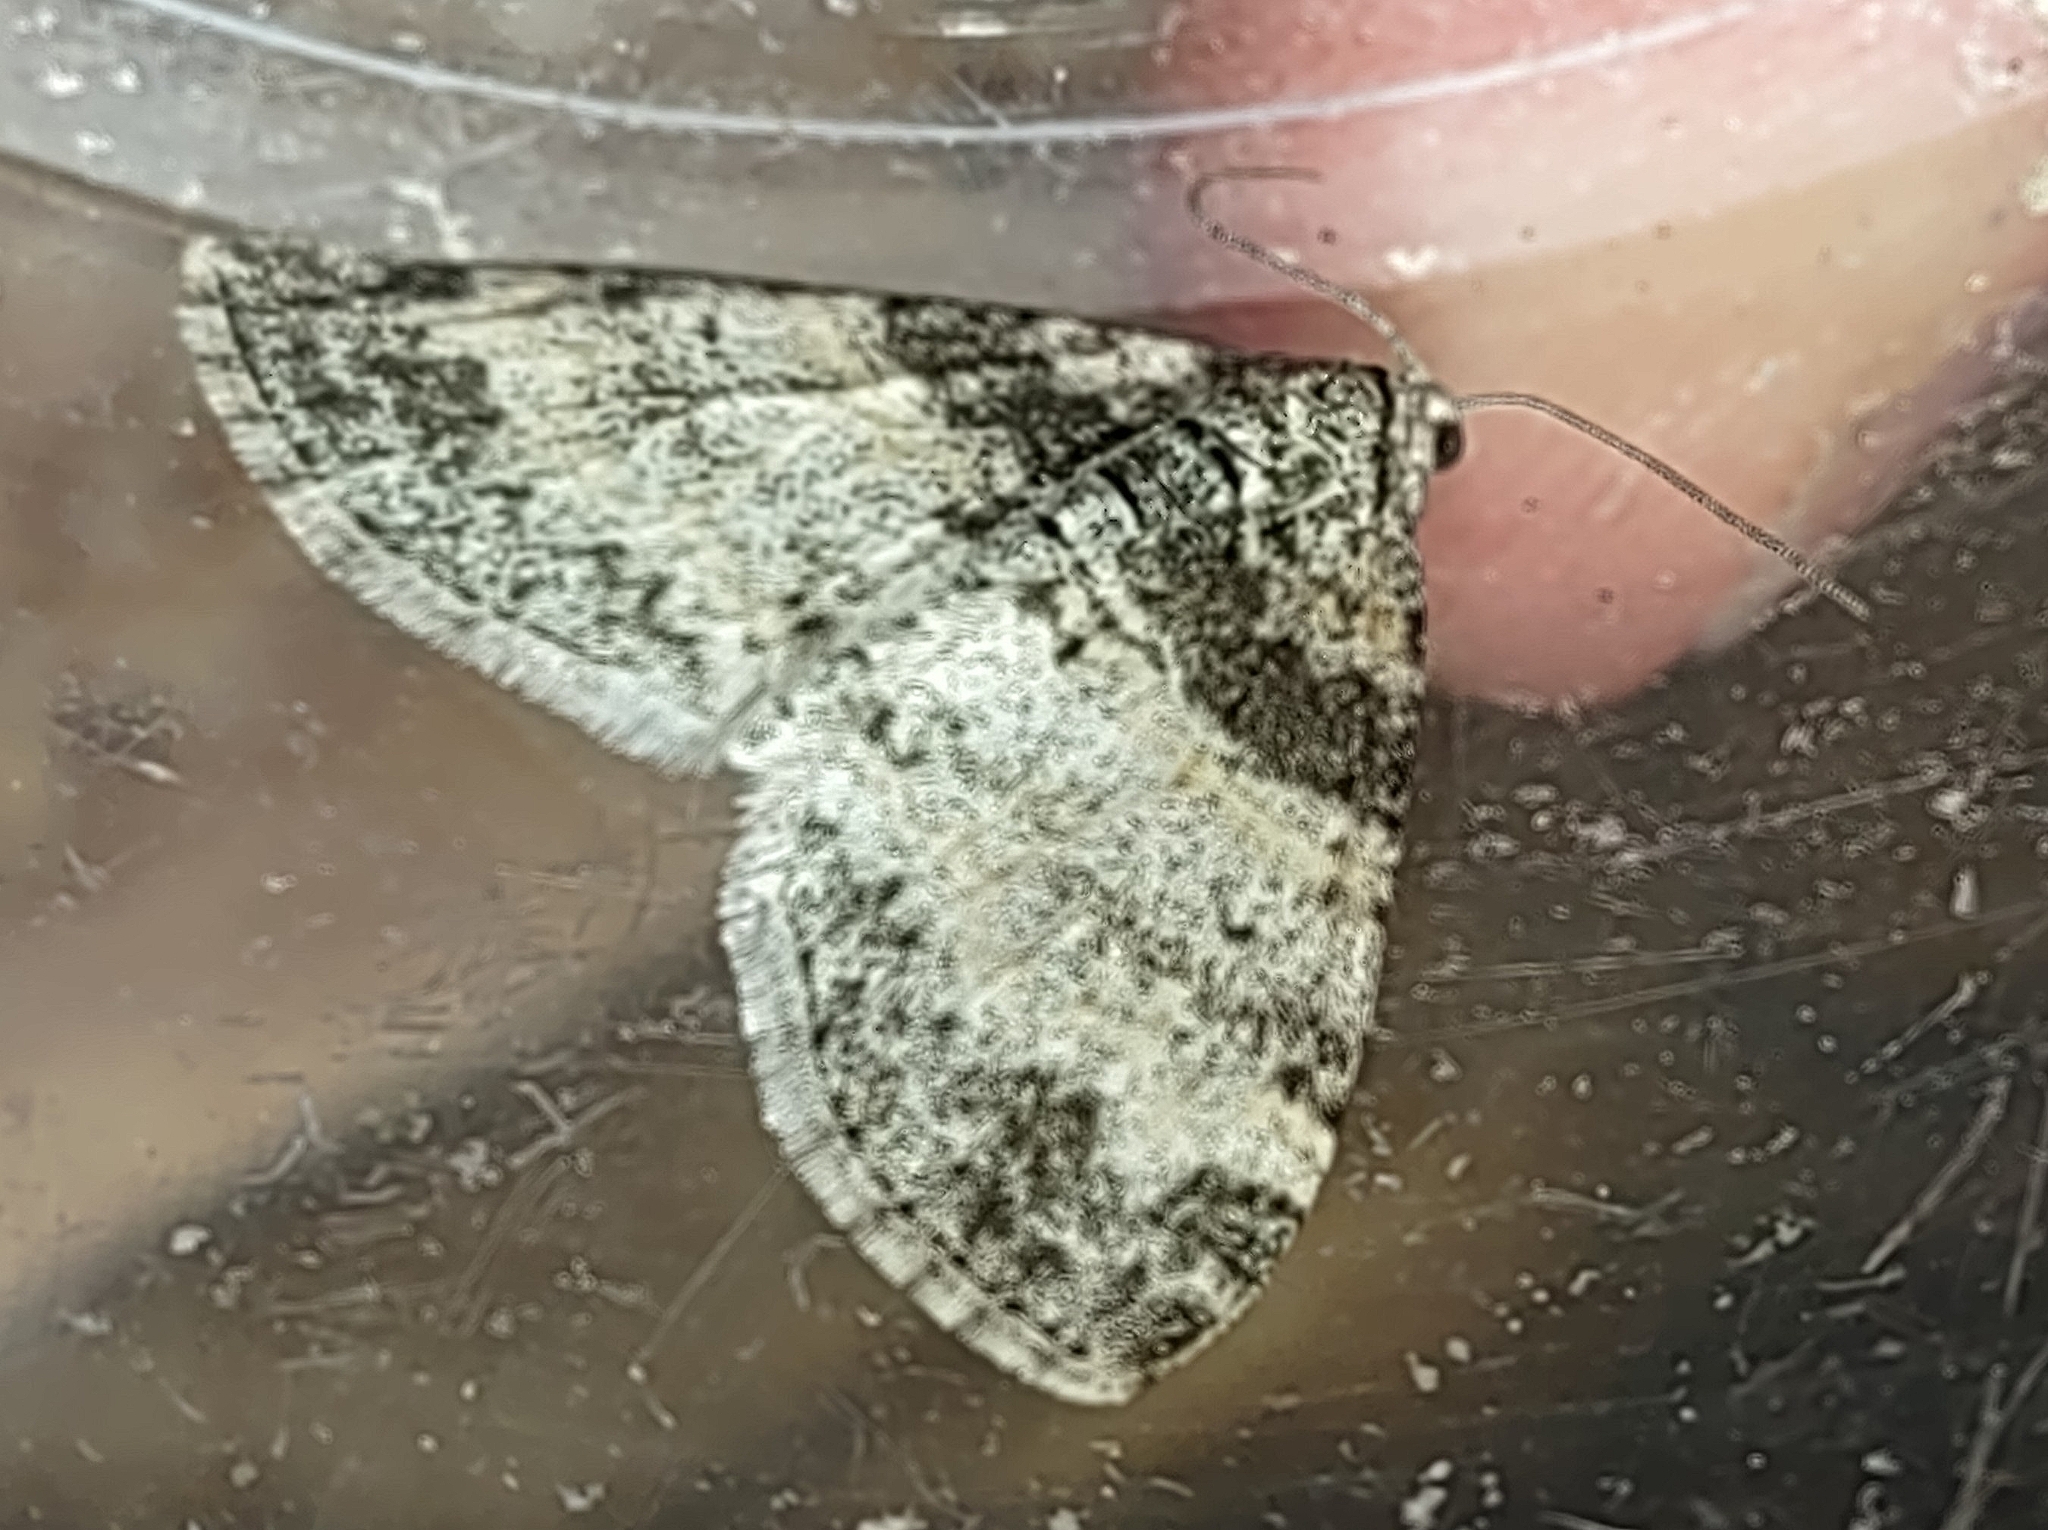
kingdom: Animalia
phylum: Arthropoda
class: Insecta
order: Lepidoptera
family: Geometridae
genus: Lobophora
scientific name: Lobophora halterata
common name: Seraphim
